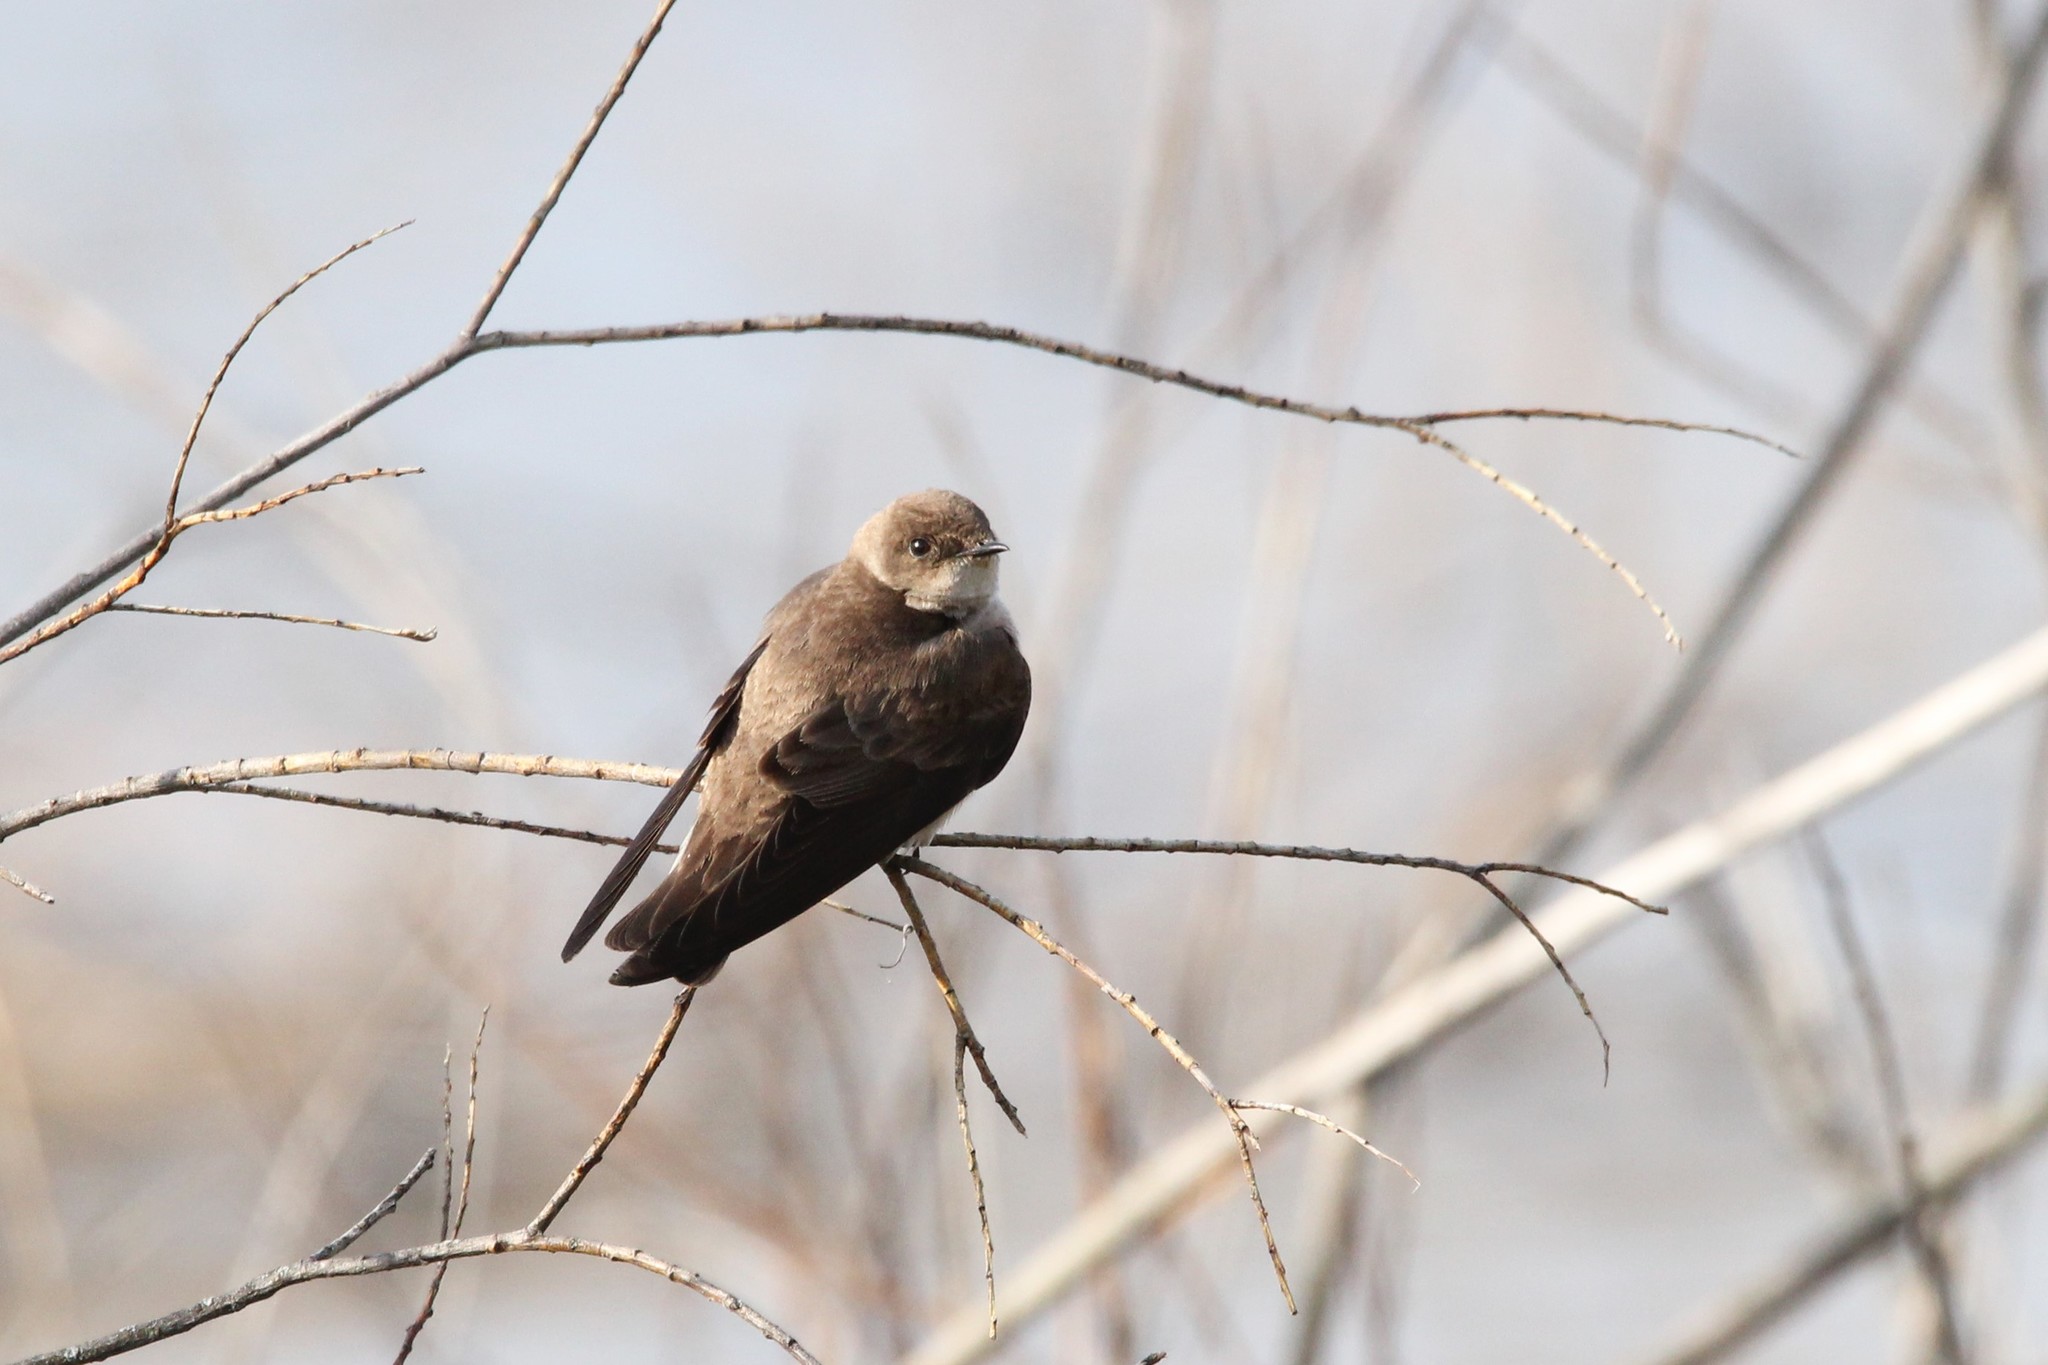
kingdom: Animalia
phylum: Chordata
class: Aves
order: Passeriformes
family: Hirundinidae
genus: Stelgidopteryx
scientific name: Stelgidopteryx serripennis
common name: Northern rough-winged swallow
